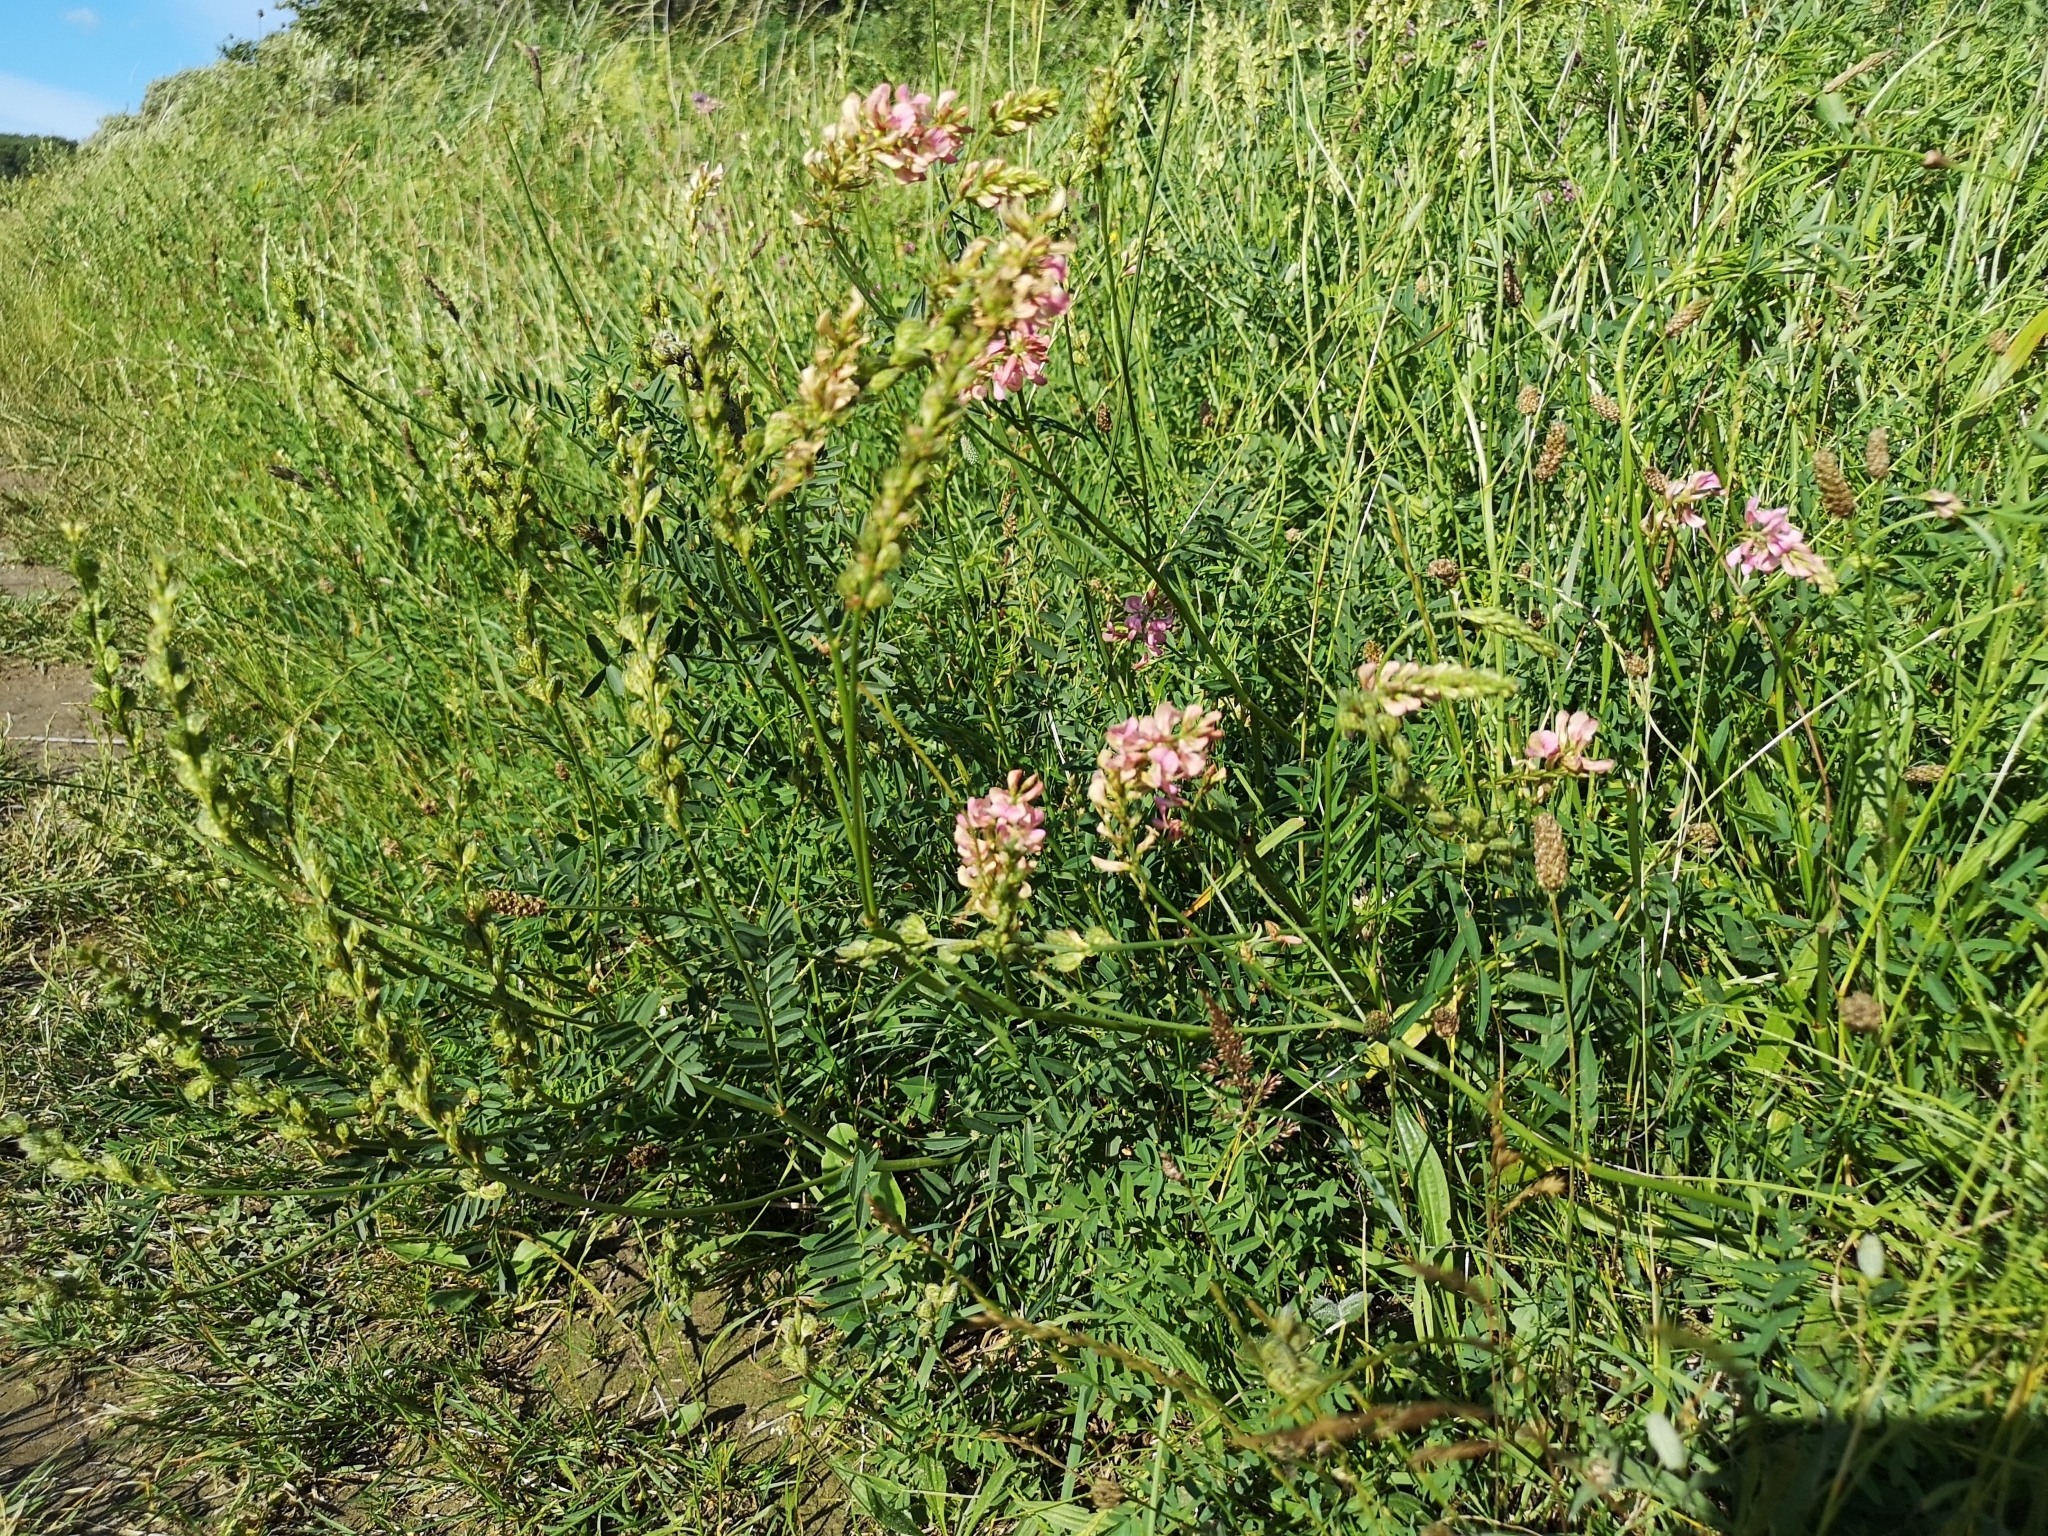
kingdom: Plantae
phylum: Tracheophyta
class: Magnoliopsida
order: Fabales
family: Fabaceae
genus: Onobrychis
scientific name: Onobrychis viciifolia
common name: Sainfoin
